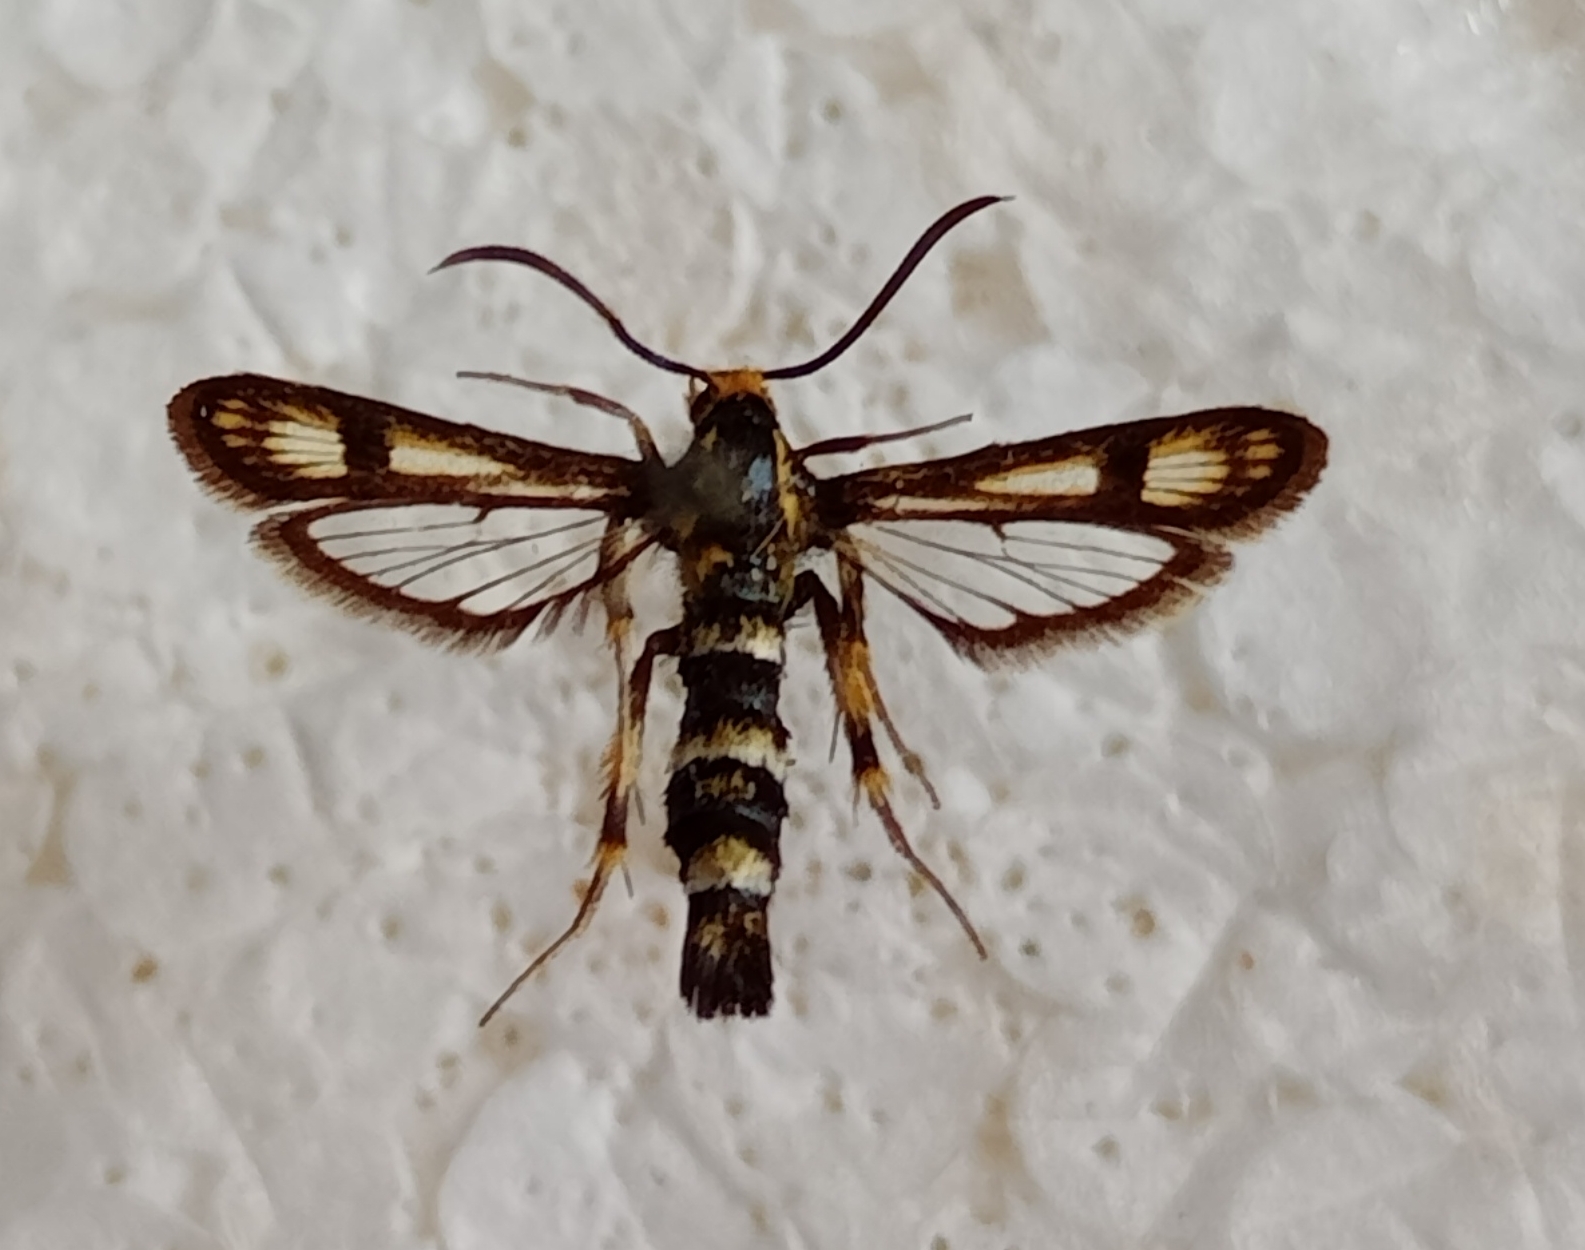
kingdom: Animalia
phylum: Arthropoda
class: Insecta
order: Lepidoptera
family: Sesiidae
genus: Chamaesphecia
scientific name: Chamaesphecia tenthrediniformis
